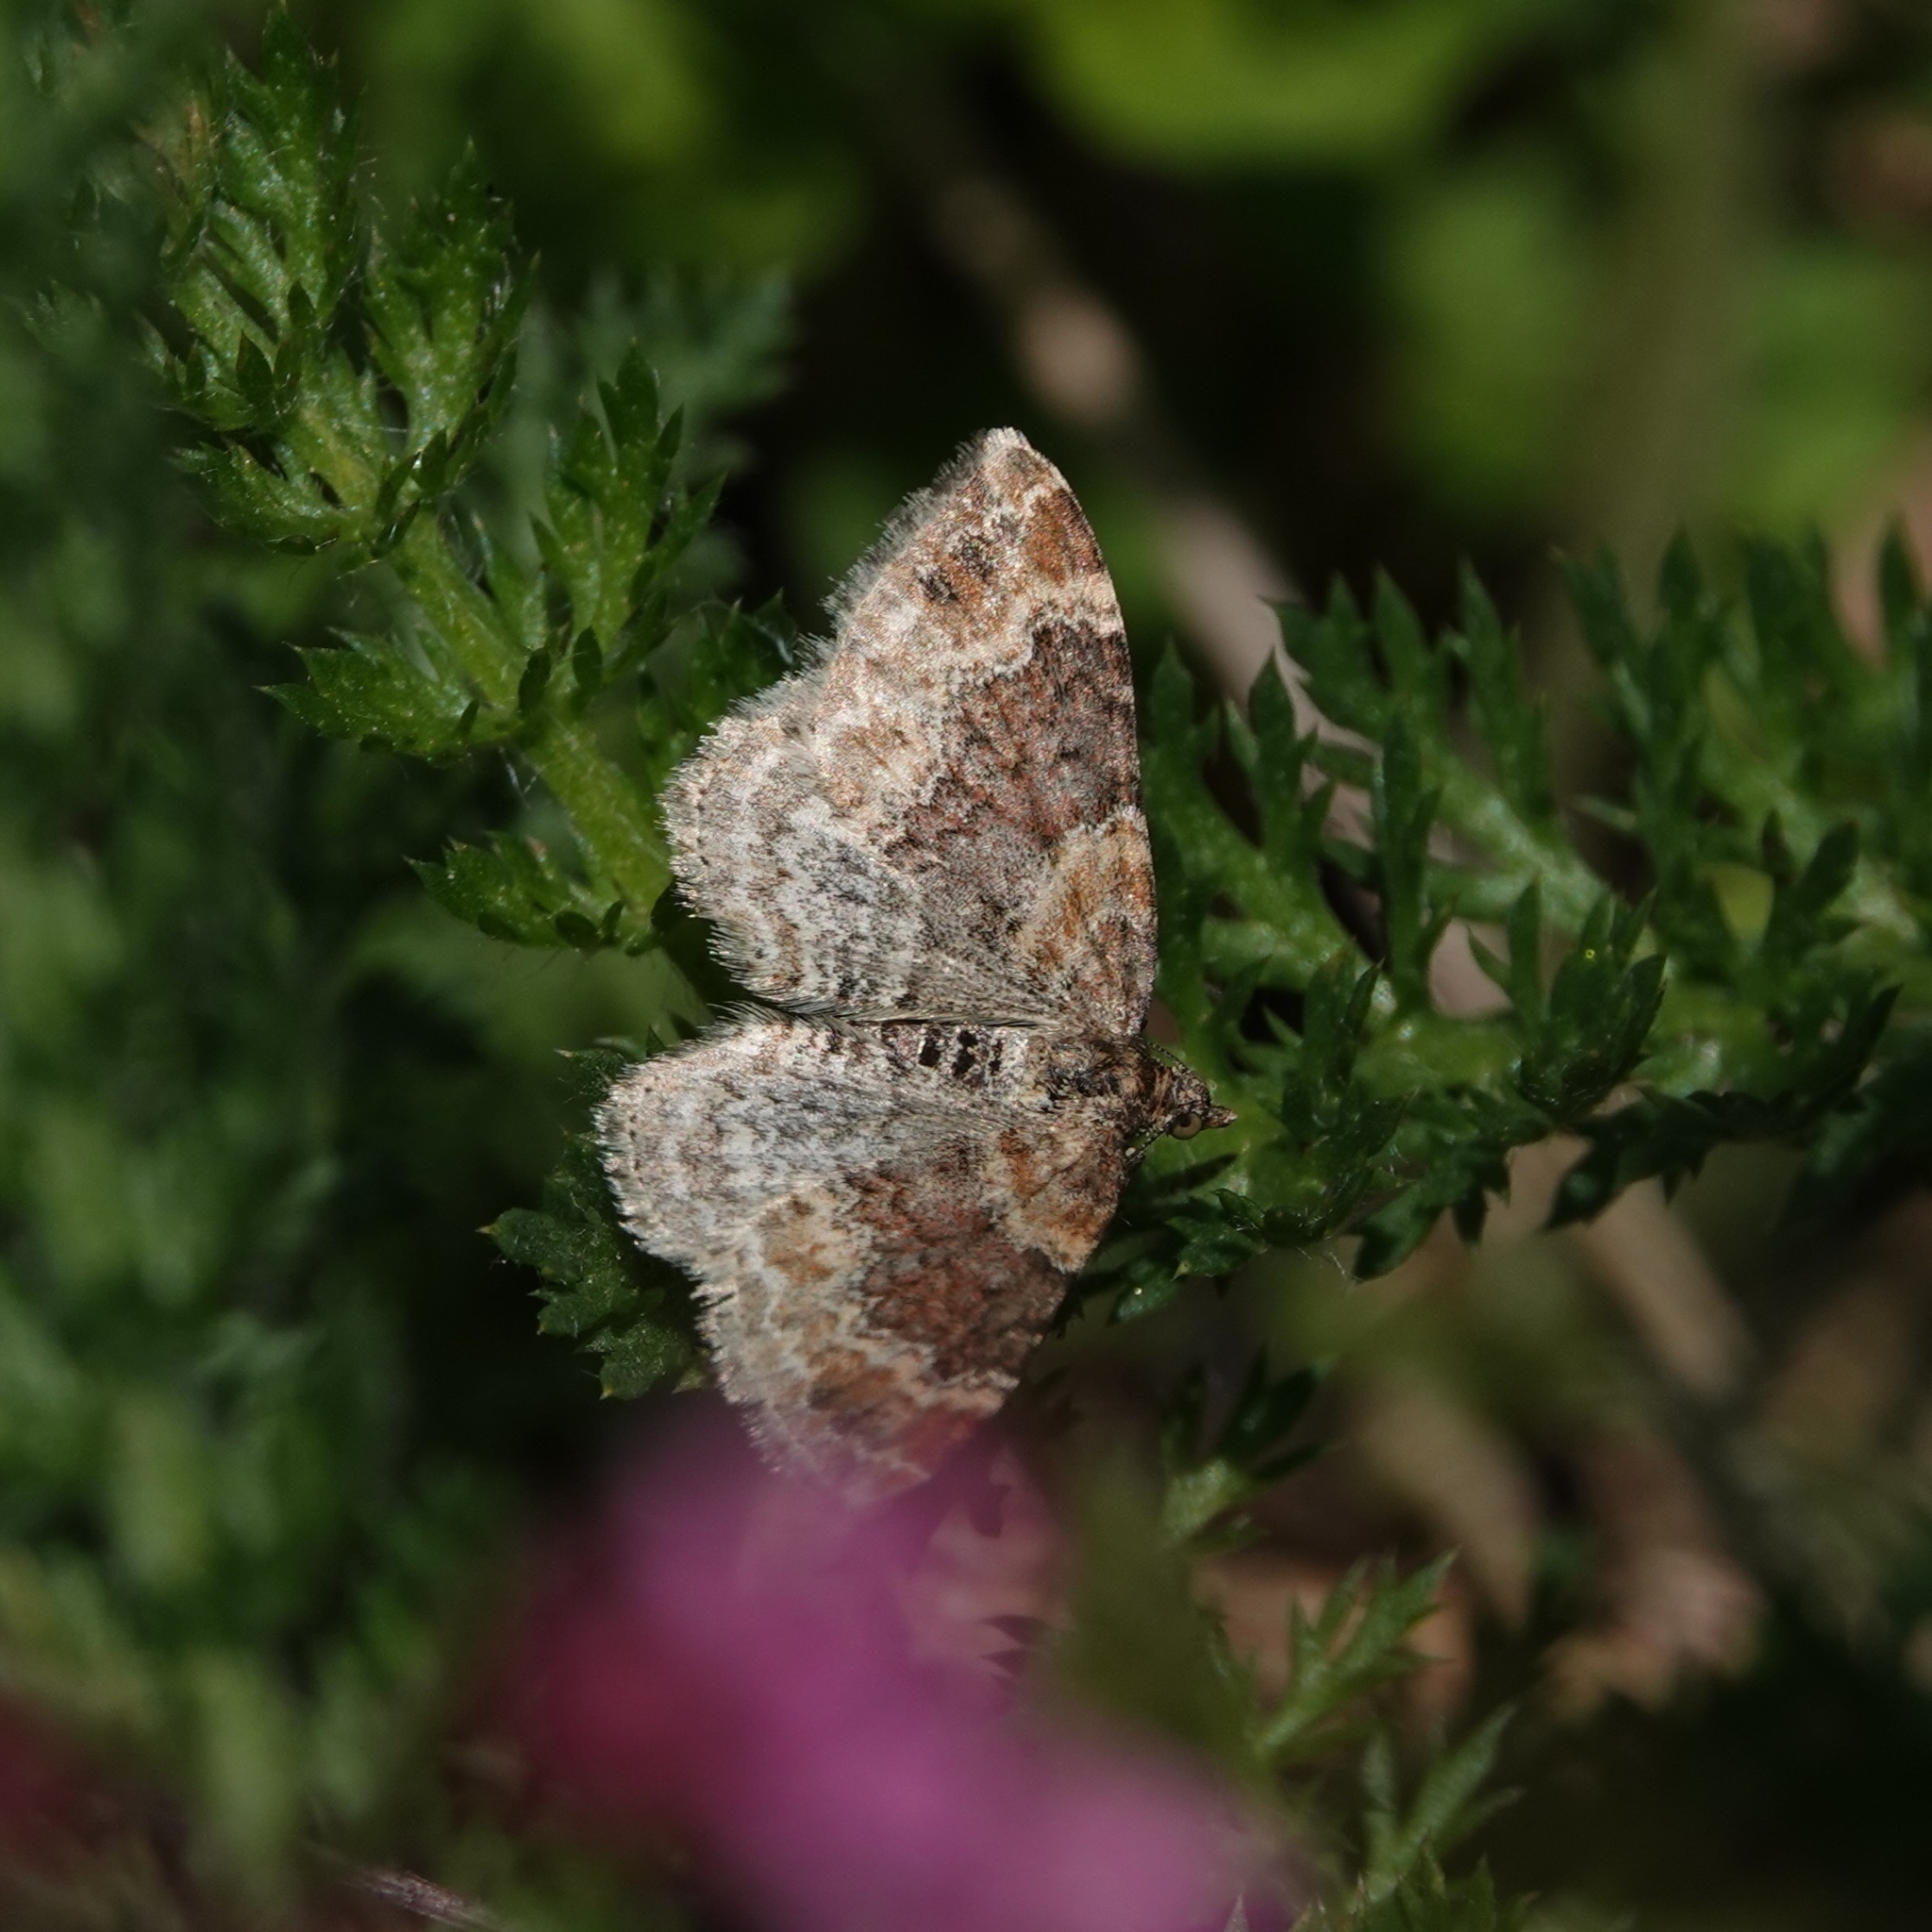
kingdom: Animalia
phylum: Arthropoda
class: Insecta
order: Lepidoptera
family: Geometridae
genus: Xanthorhoe
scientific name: Xanthorhoe spadicearia
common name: Red twin-spot carpet
